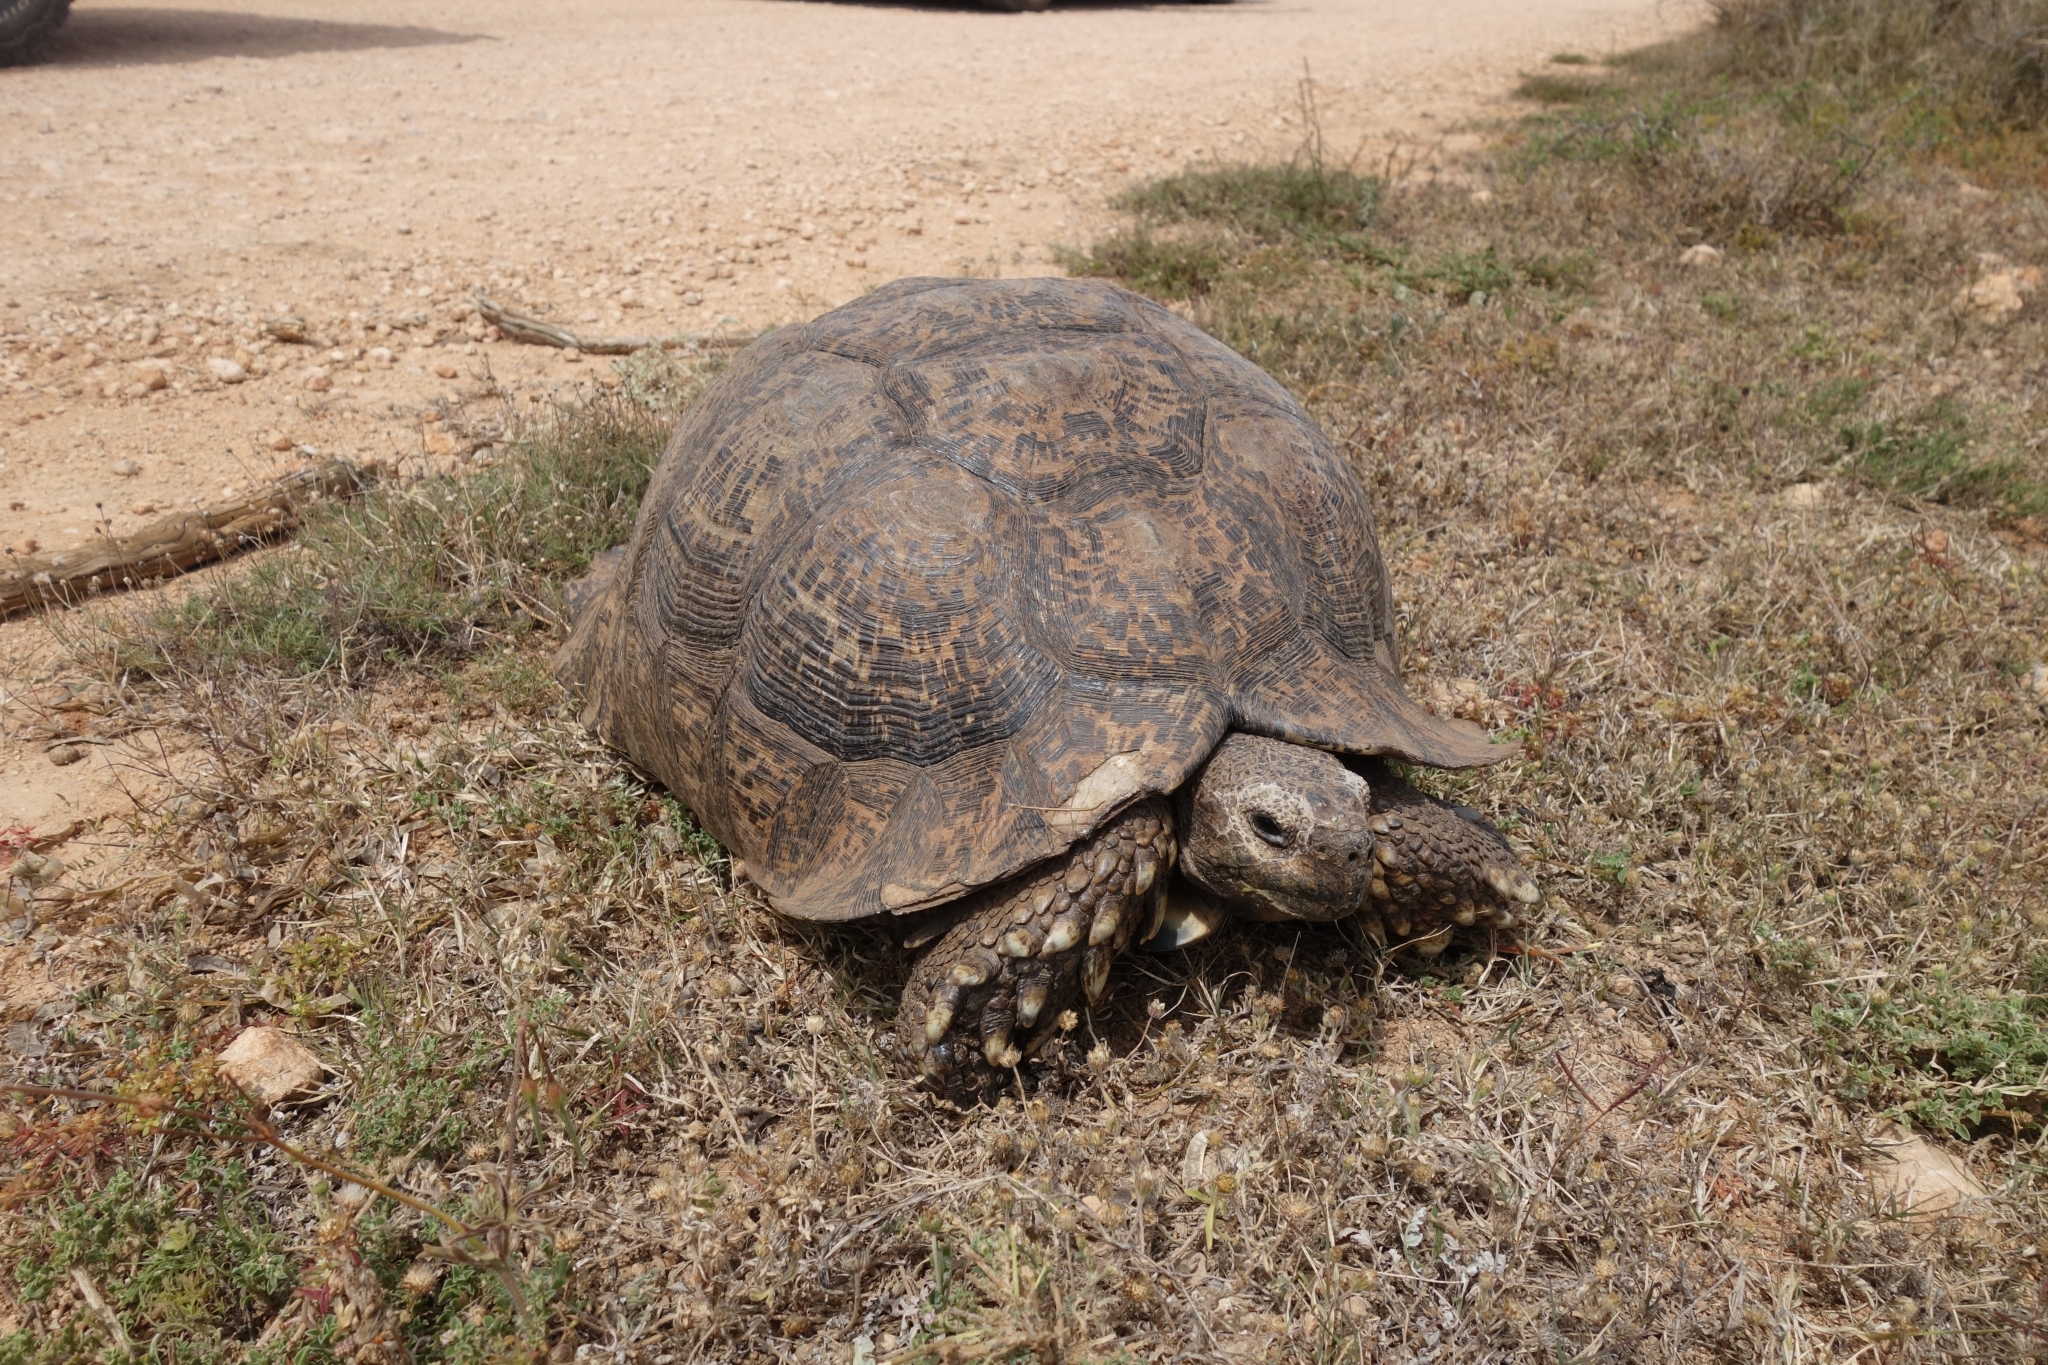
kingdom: Animalia
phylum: Chordata
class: Testudines
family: Testudinidae
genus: Stigmochelys
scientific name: Stigmochelys pardalis
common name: Leopard tortoise
